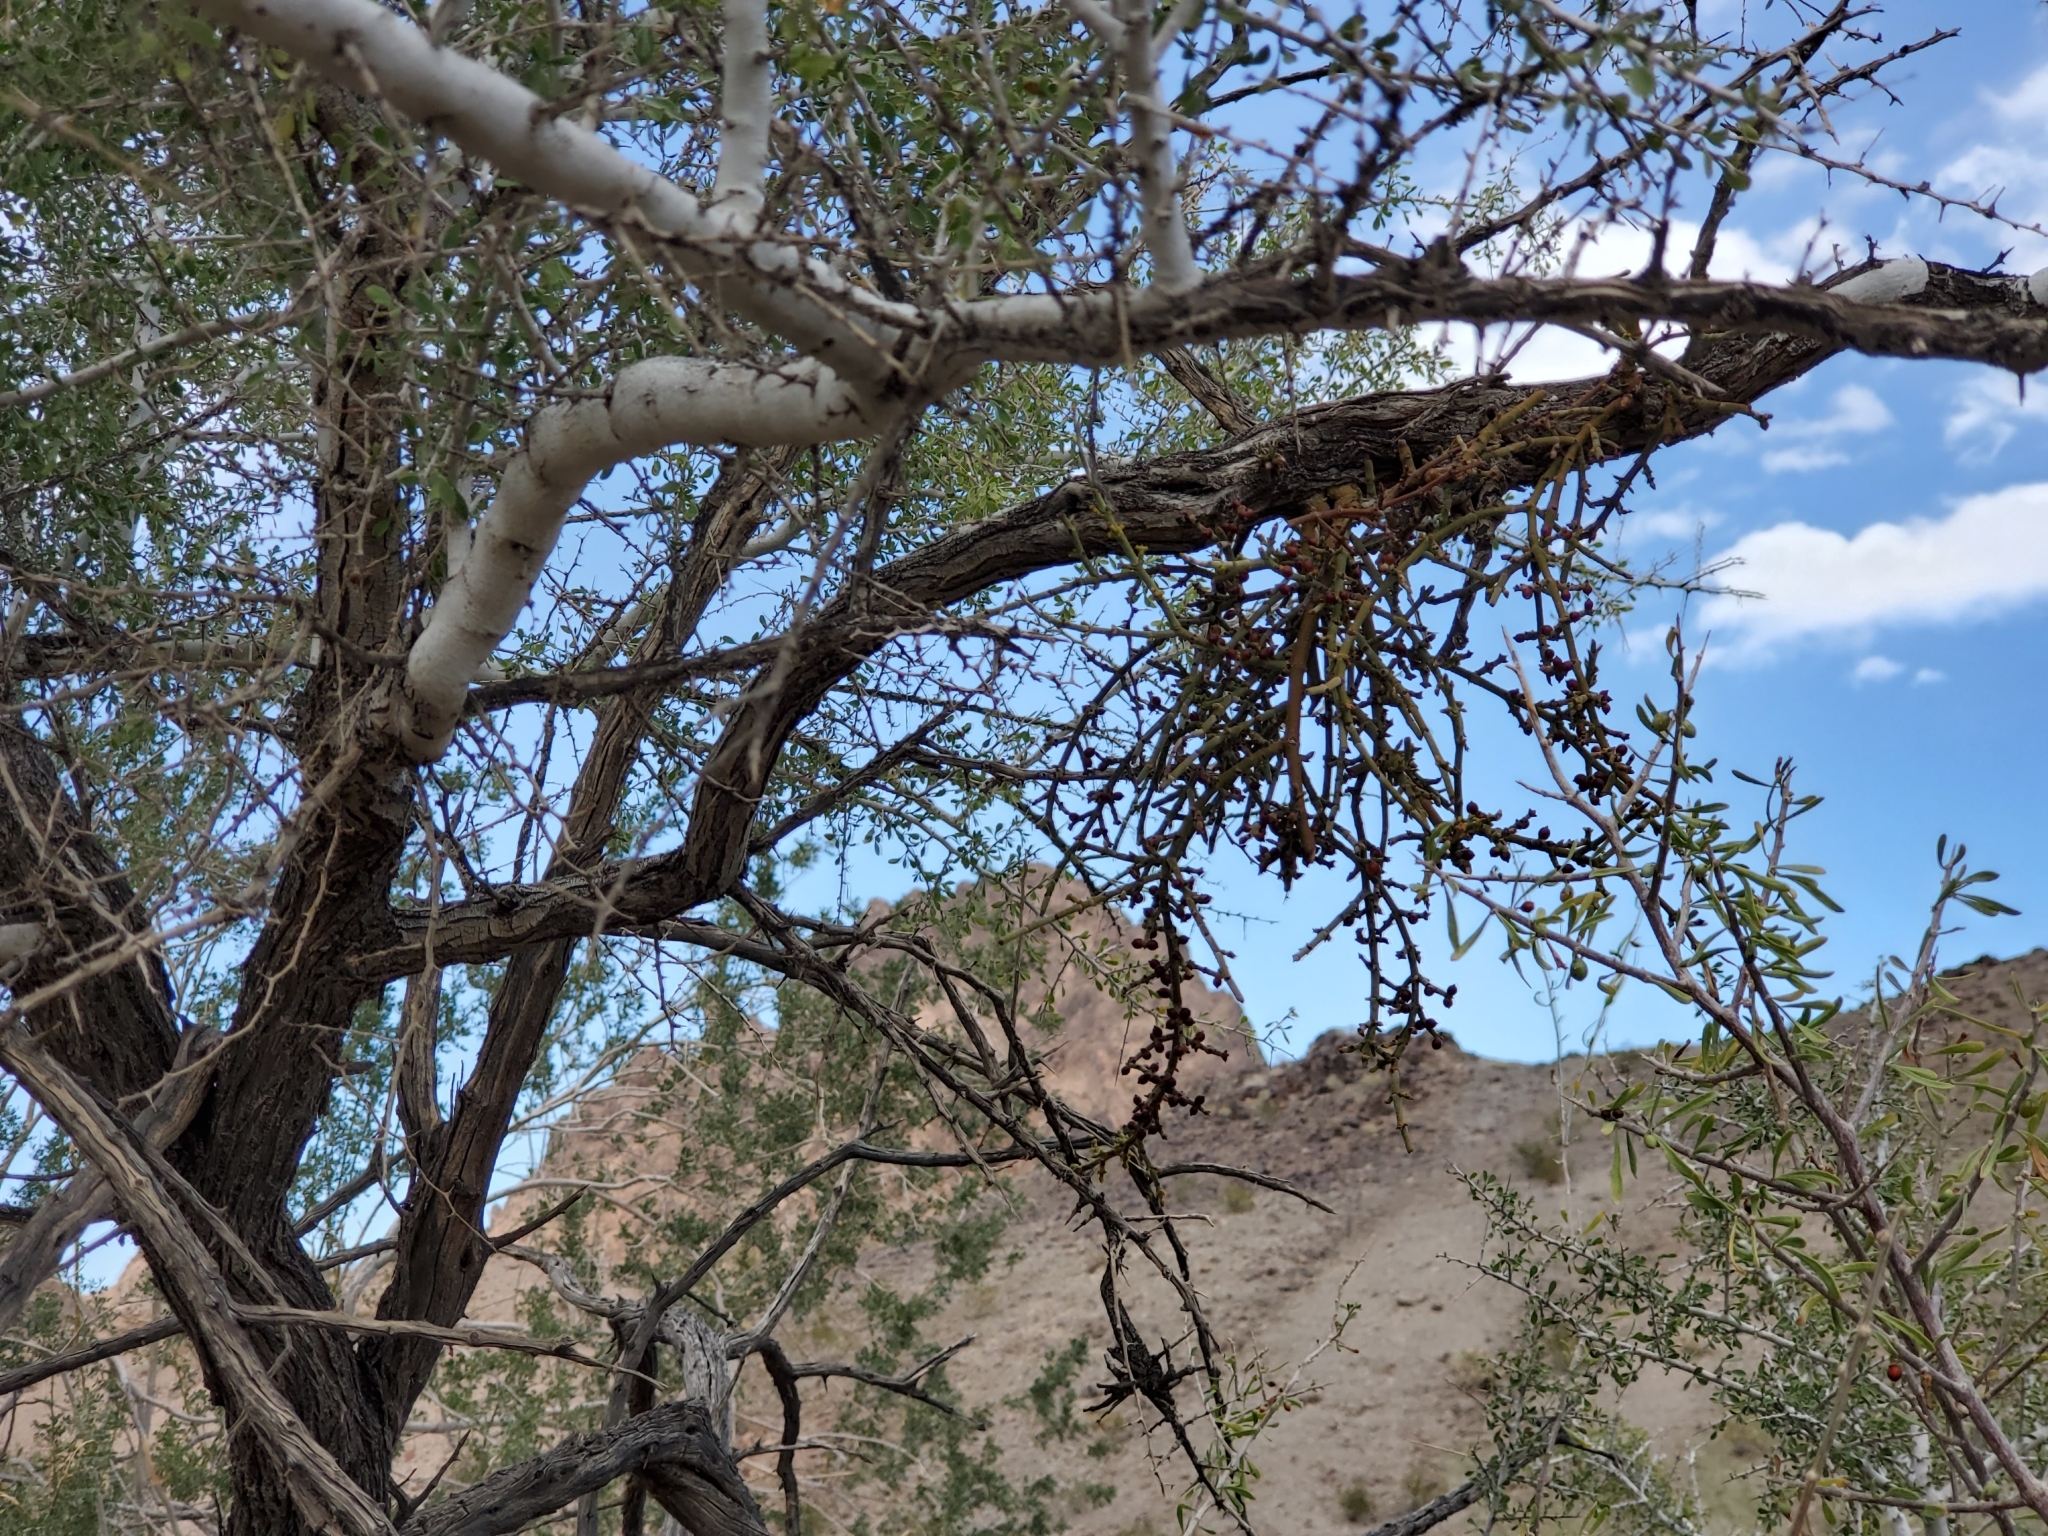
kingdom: Plantae
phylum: Tracheophyta
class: Magnoliopsida
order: Fabales
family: Fabaceae
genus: Olneya
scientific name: Olneya tesota
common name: Desert ironwood
